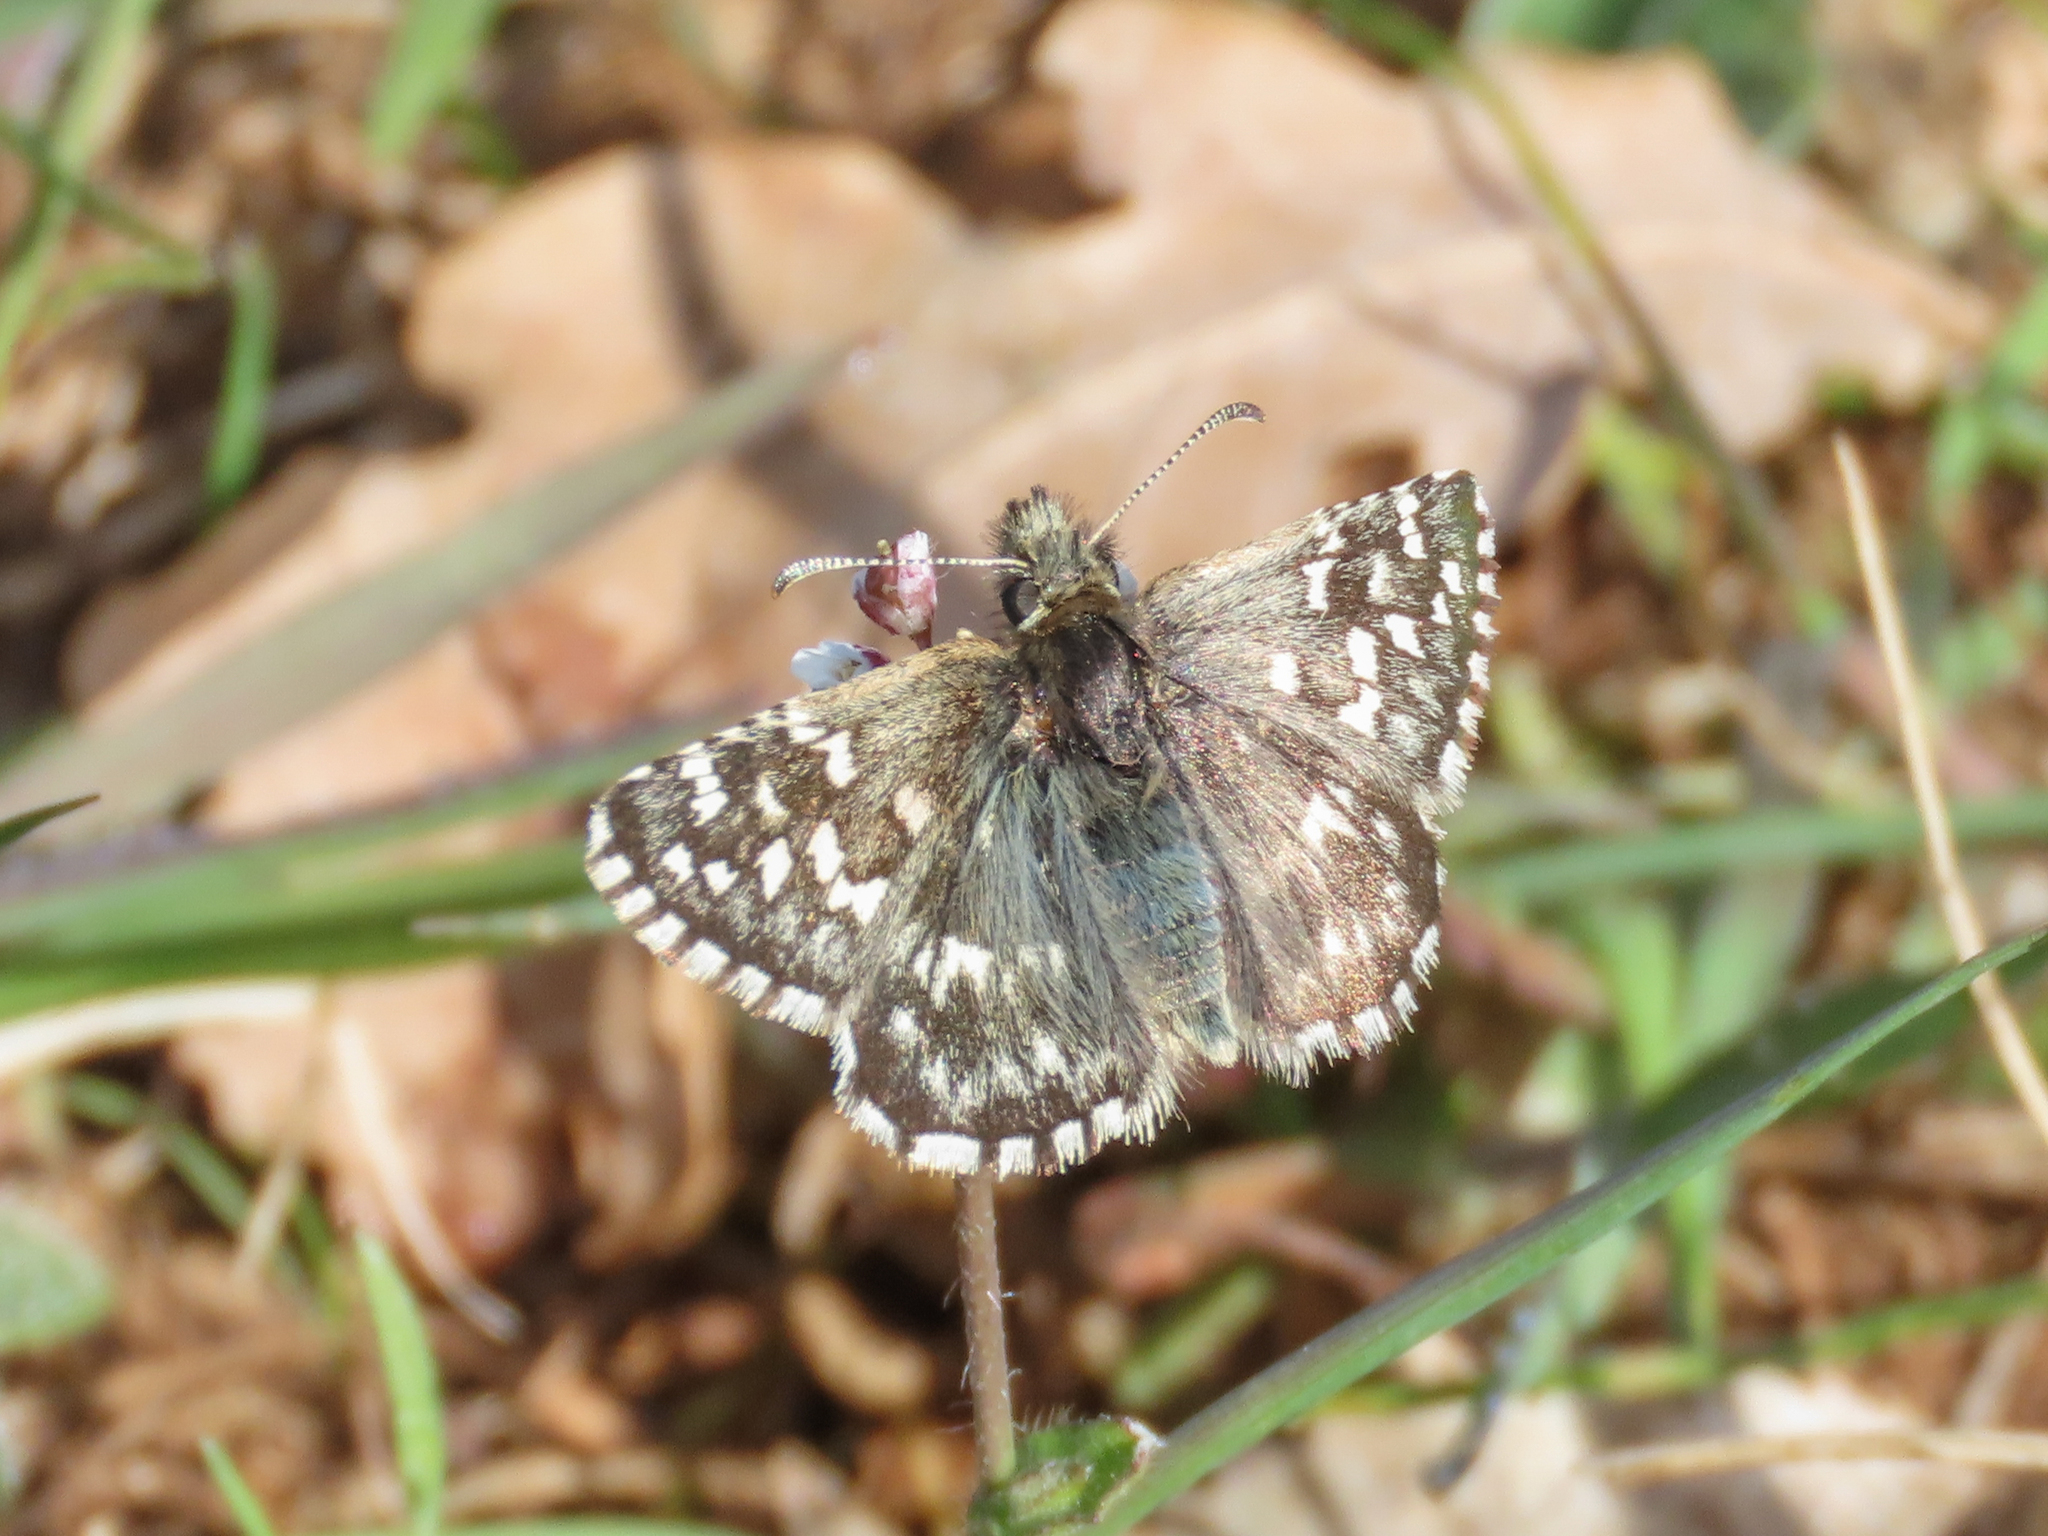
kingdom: Animalia
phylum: Arthropoda
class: Insecta
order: Lepidoptera
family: Hesperiidae
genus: Pyrgus
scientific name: Pyrgus malvoides
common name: Southern grizzled skipper
